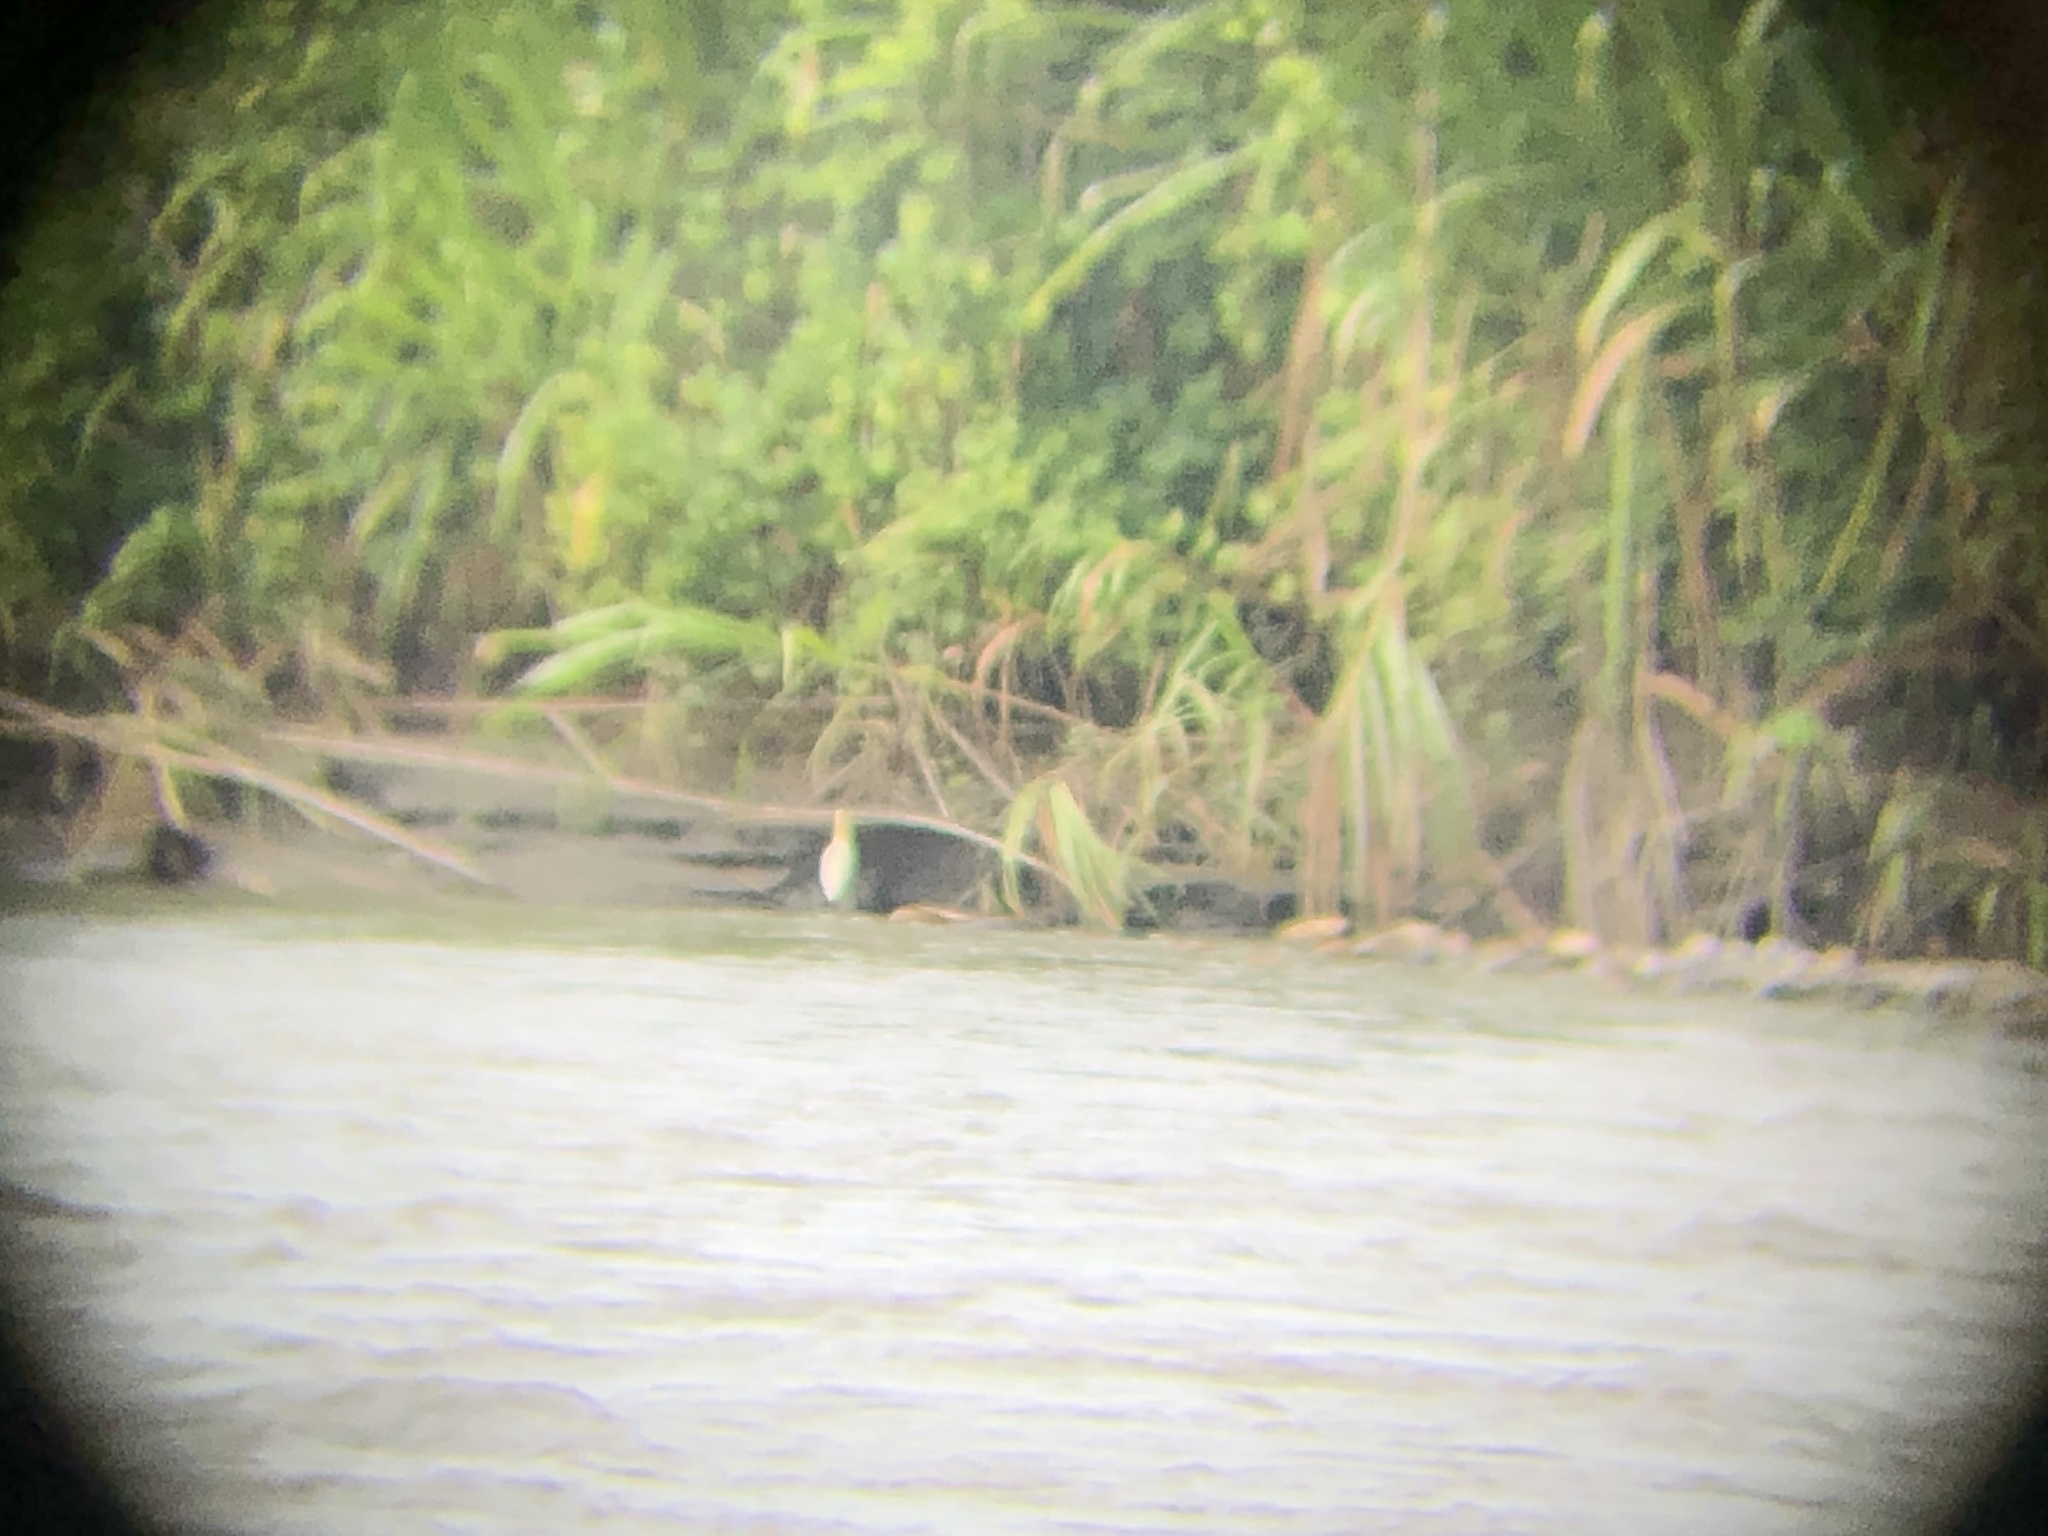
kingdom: Animalia
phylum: Chordata
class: Aves
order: Pelecaniformes
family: Ardeidae
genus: Pilherodius
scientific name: Pilherodius pileatus
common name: Capped heron
